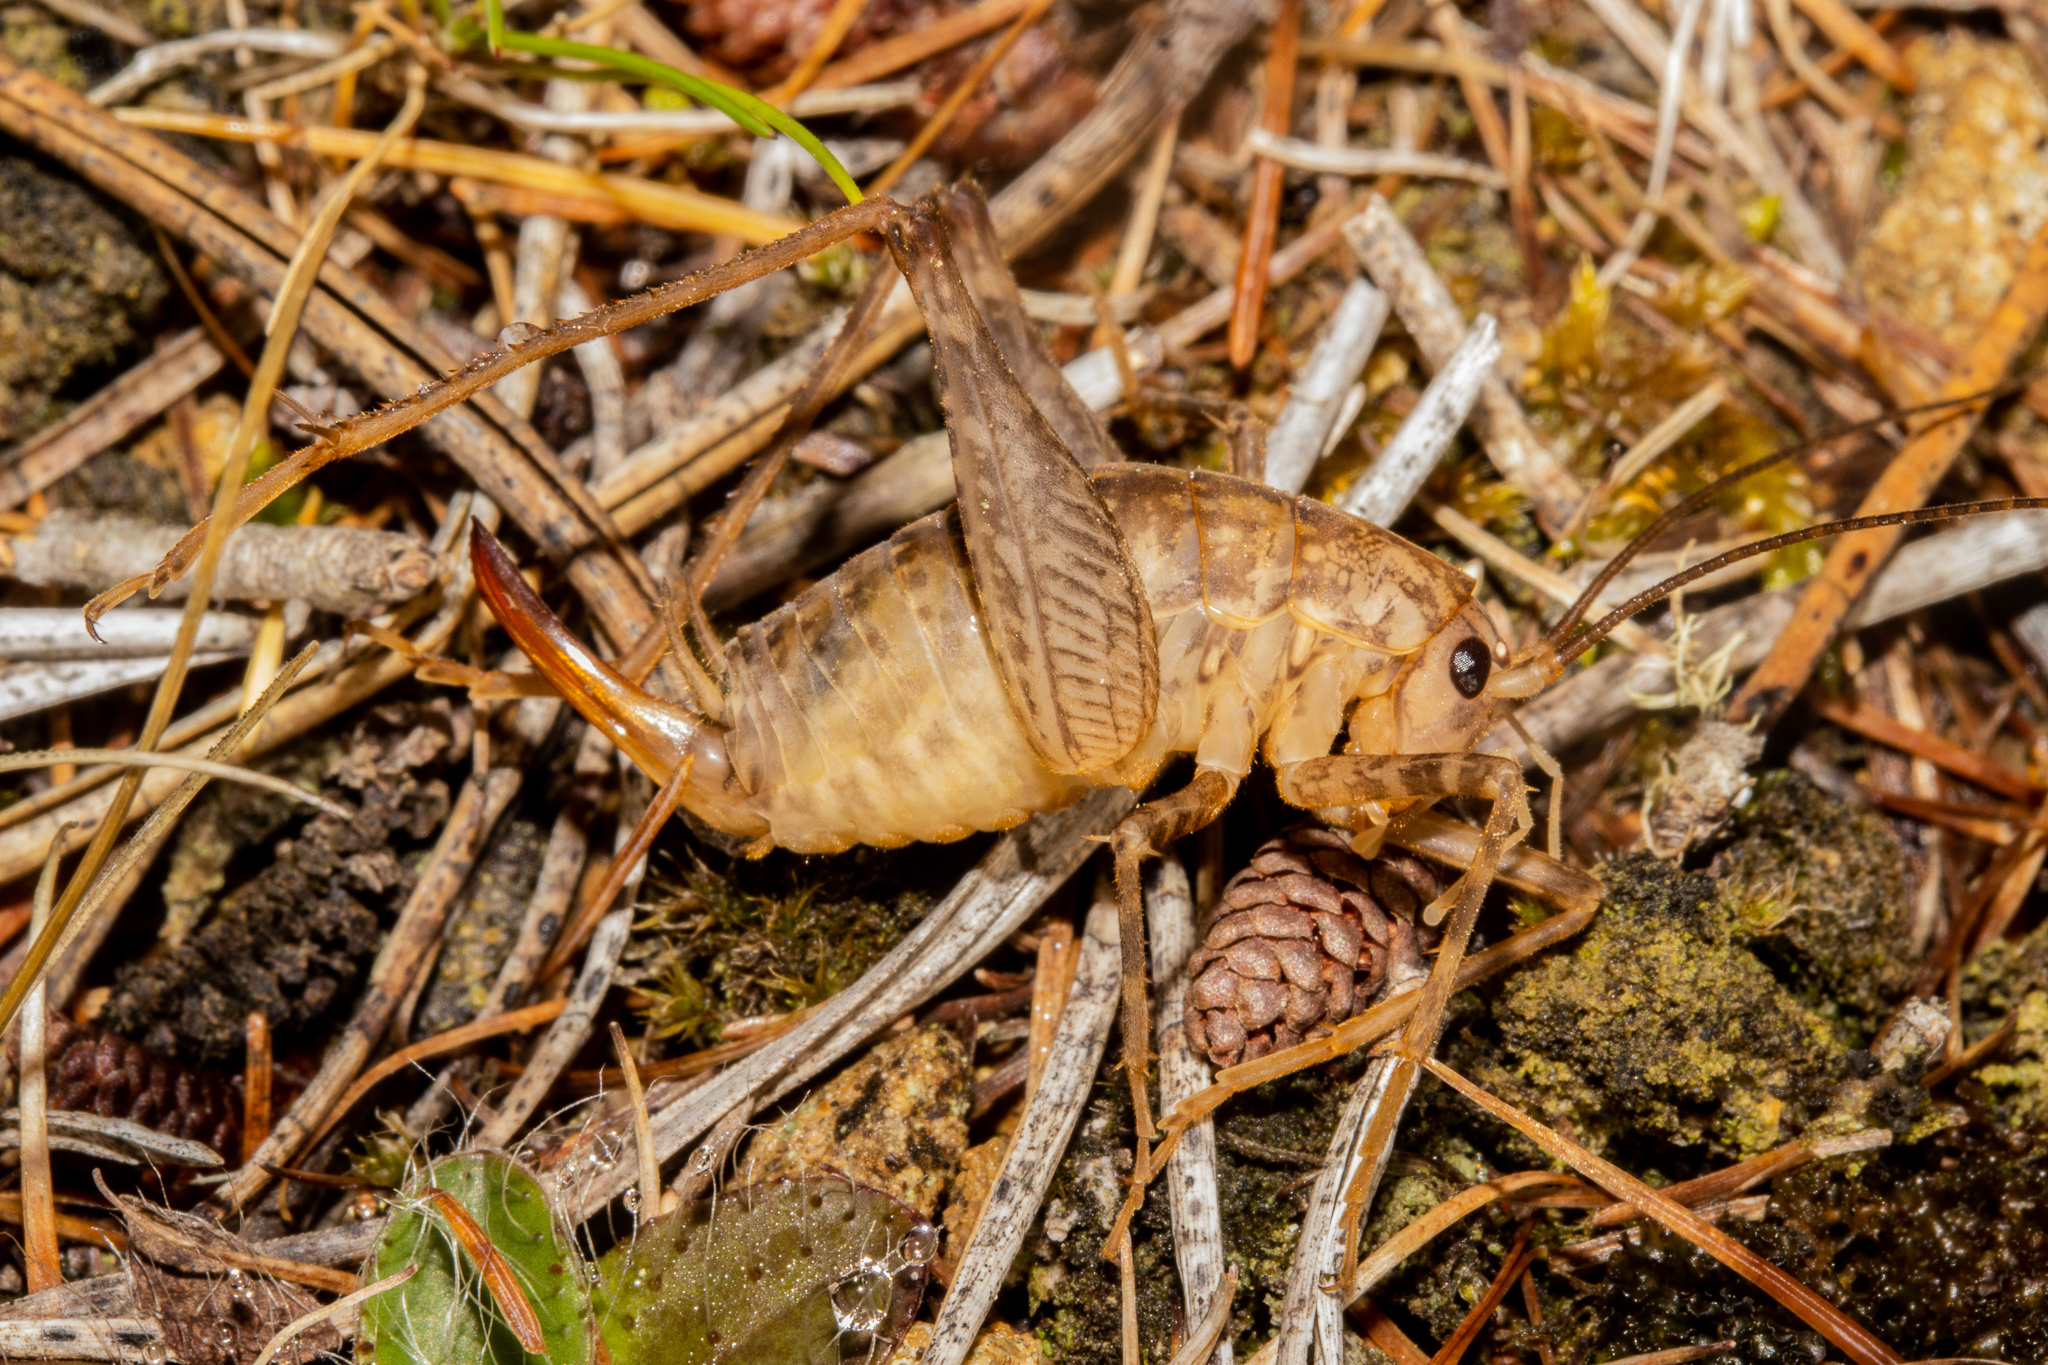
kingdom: Animalia
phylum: Arthropoda
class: Insecta
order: Orthoptera
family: Rhaphidophoridae
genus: Pleioplectron
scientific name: Pleioplectron simplex
